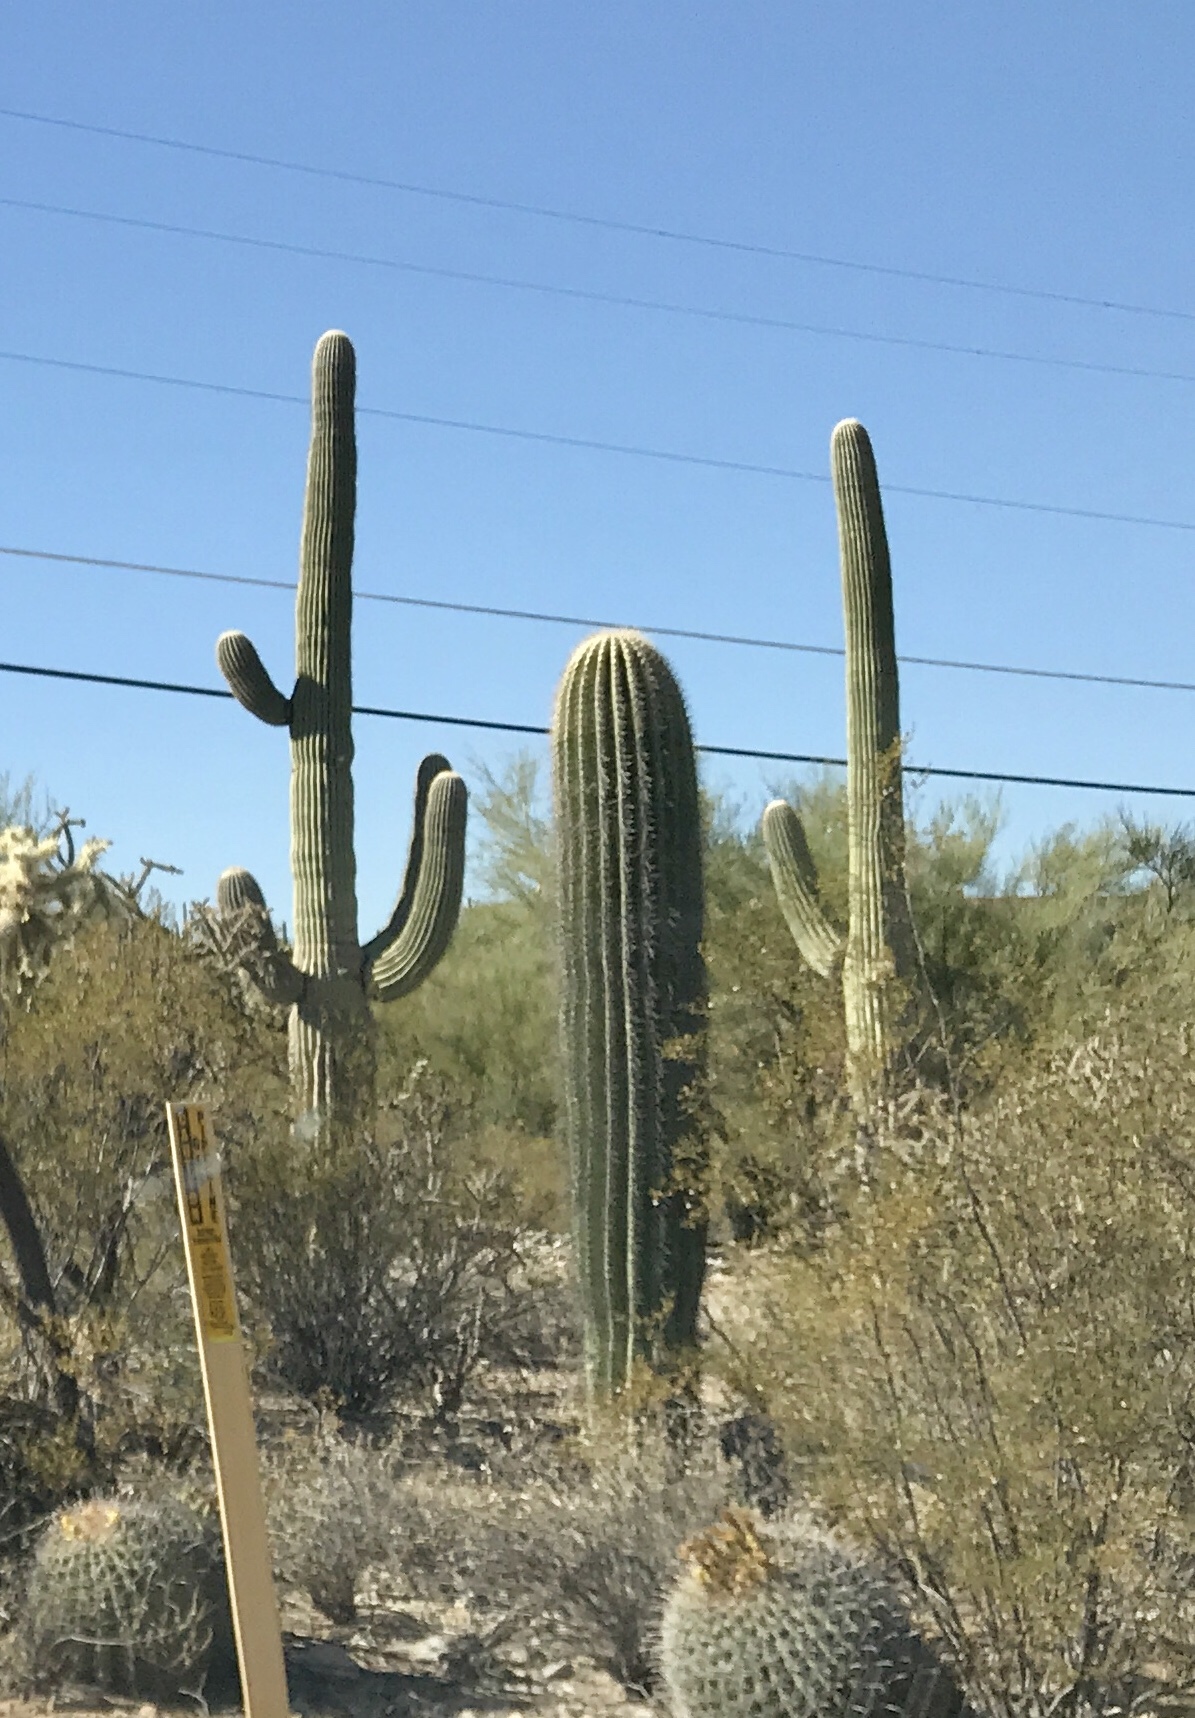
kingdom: Plantae
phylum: Tracheophyta
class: Magnoliopsida
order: Caryophyllales
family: Cactaceae
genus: Carnegiea
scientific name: Carnegiea gigantea
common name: Saguaro
